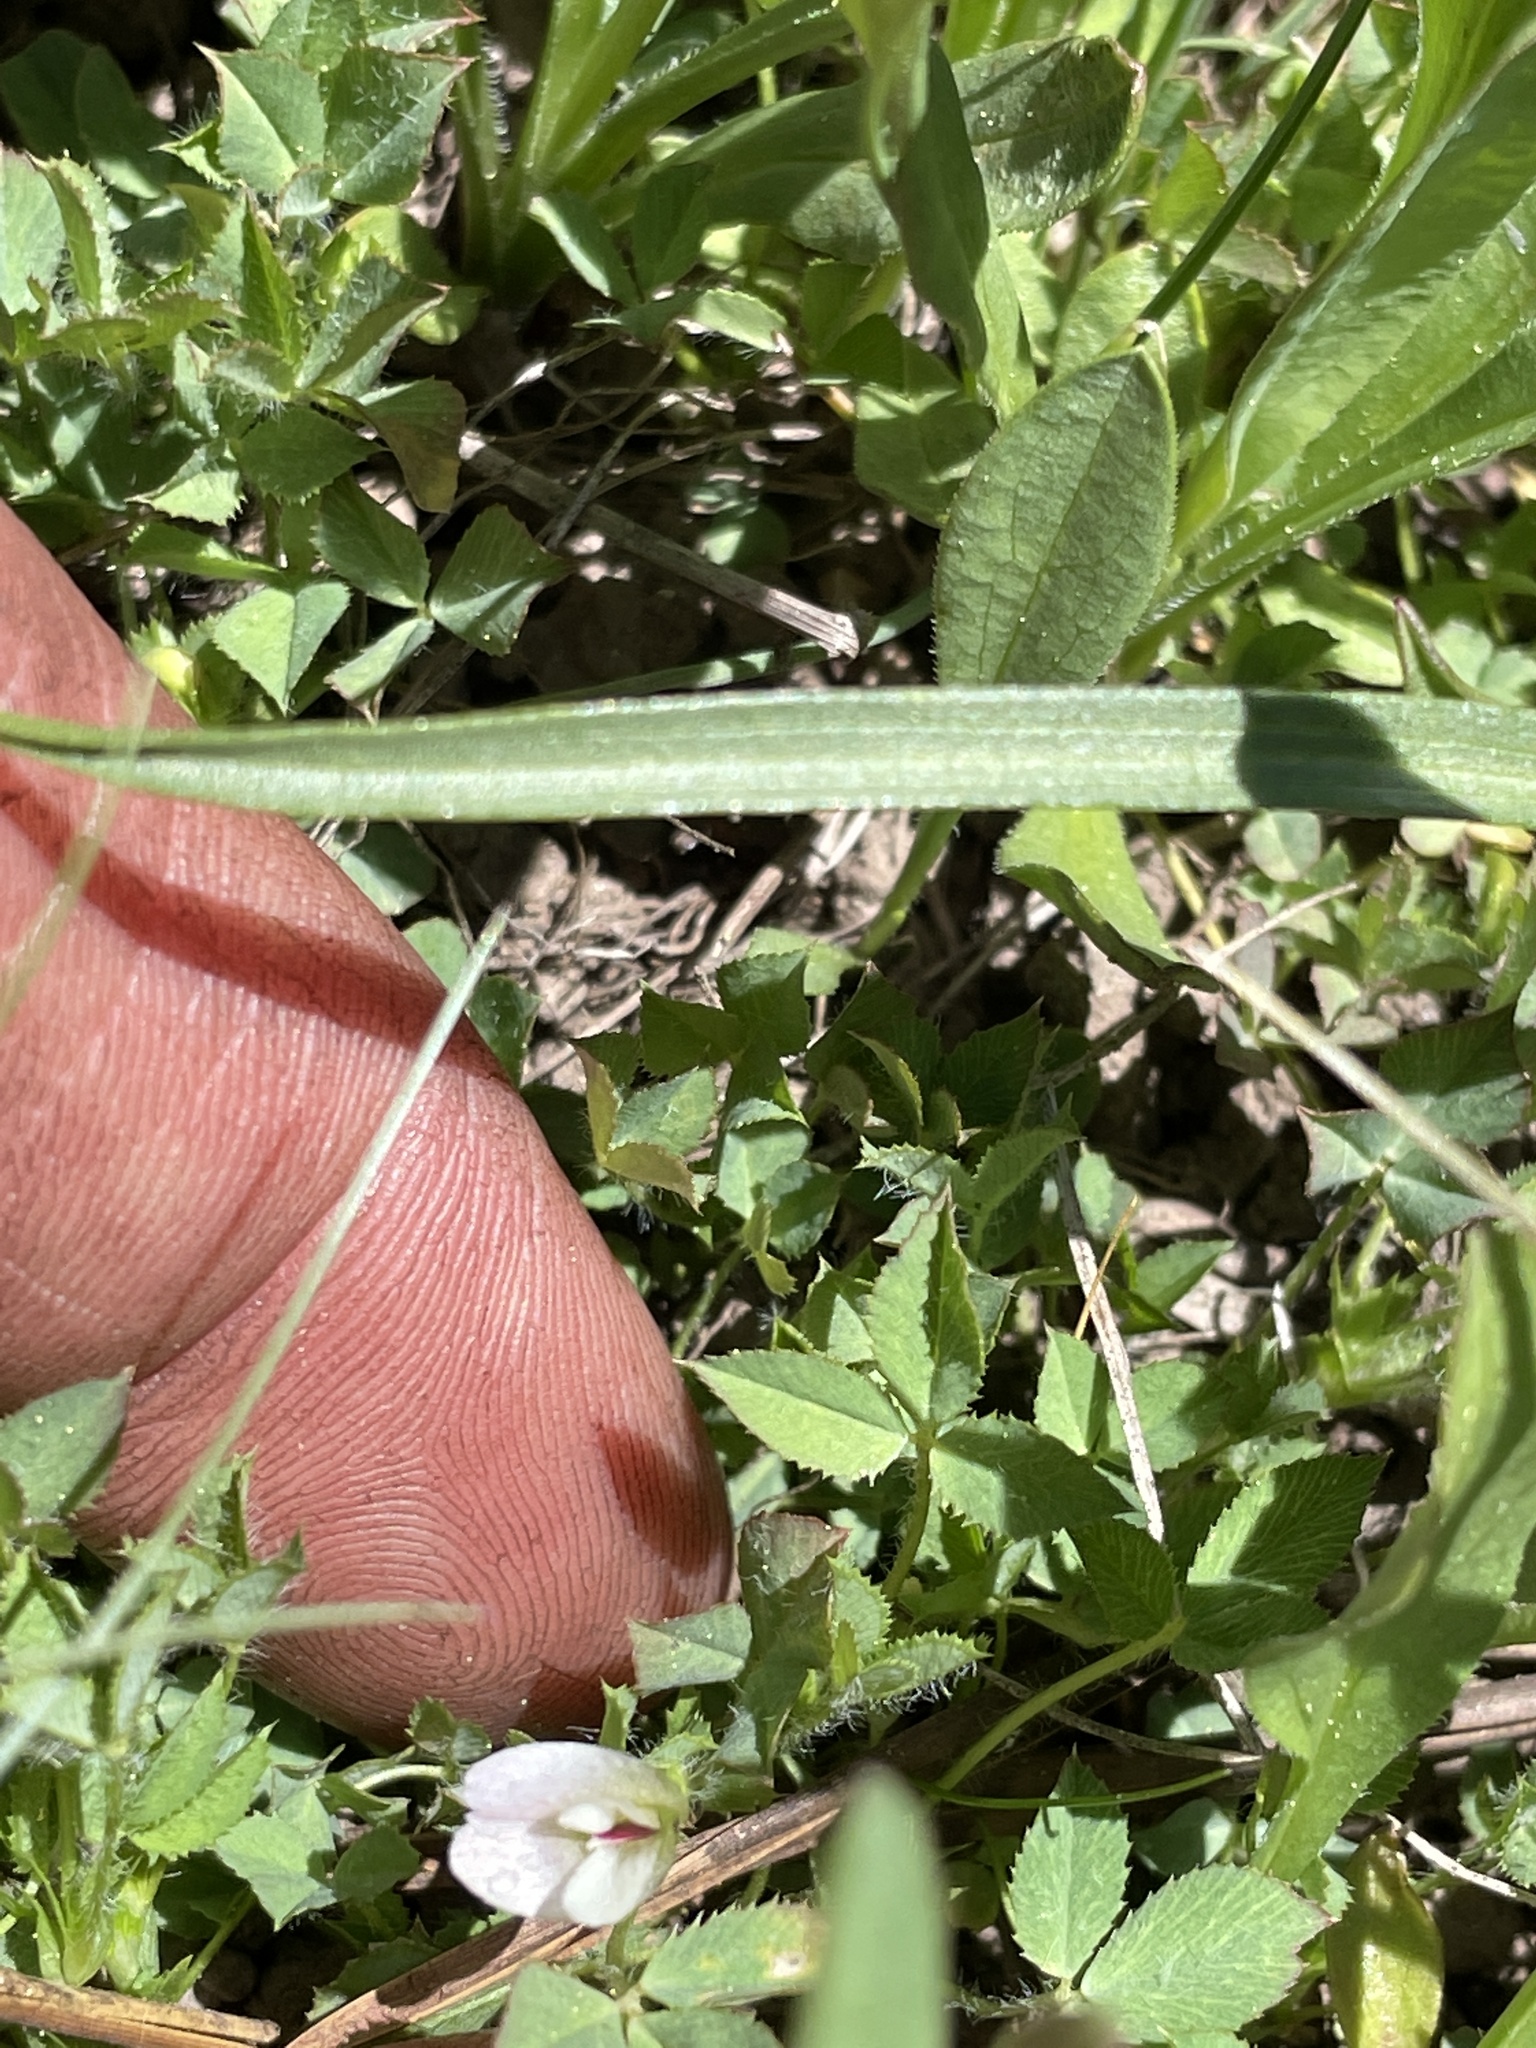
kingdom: Plantae
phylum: Tracheophyta
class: Magnoliopsida
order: Fabales
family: Fabaceae
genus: Trifolium
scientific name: Trifolium monanthum
